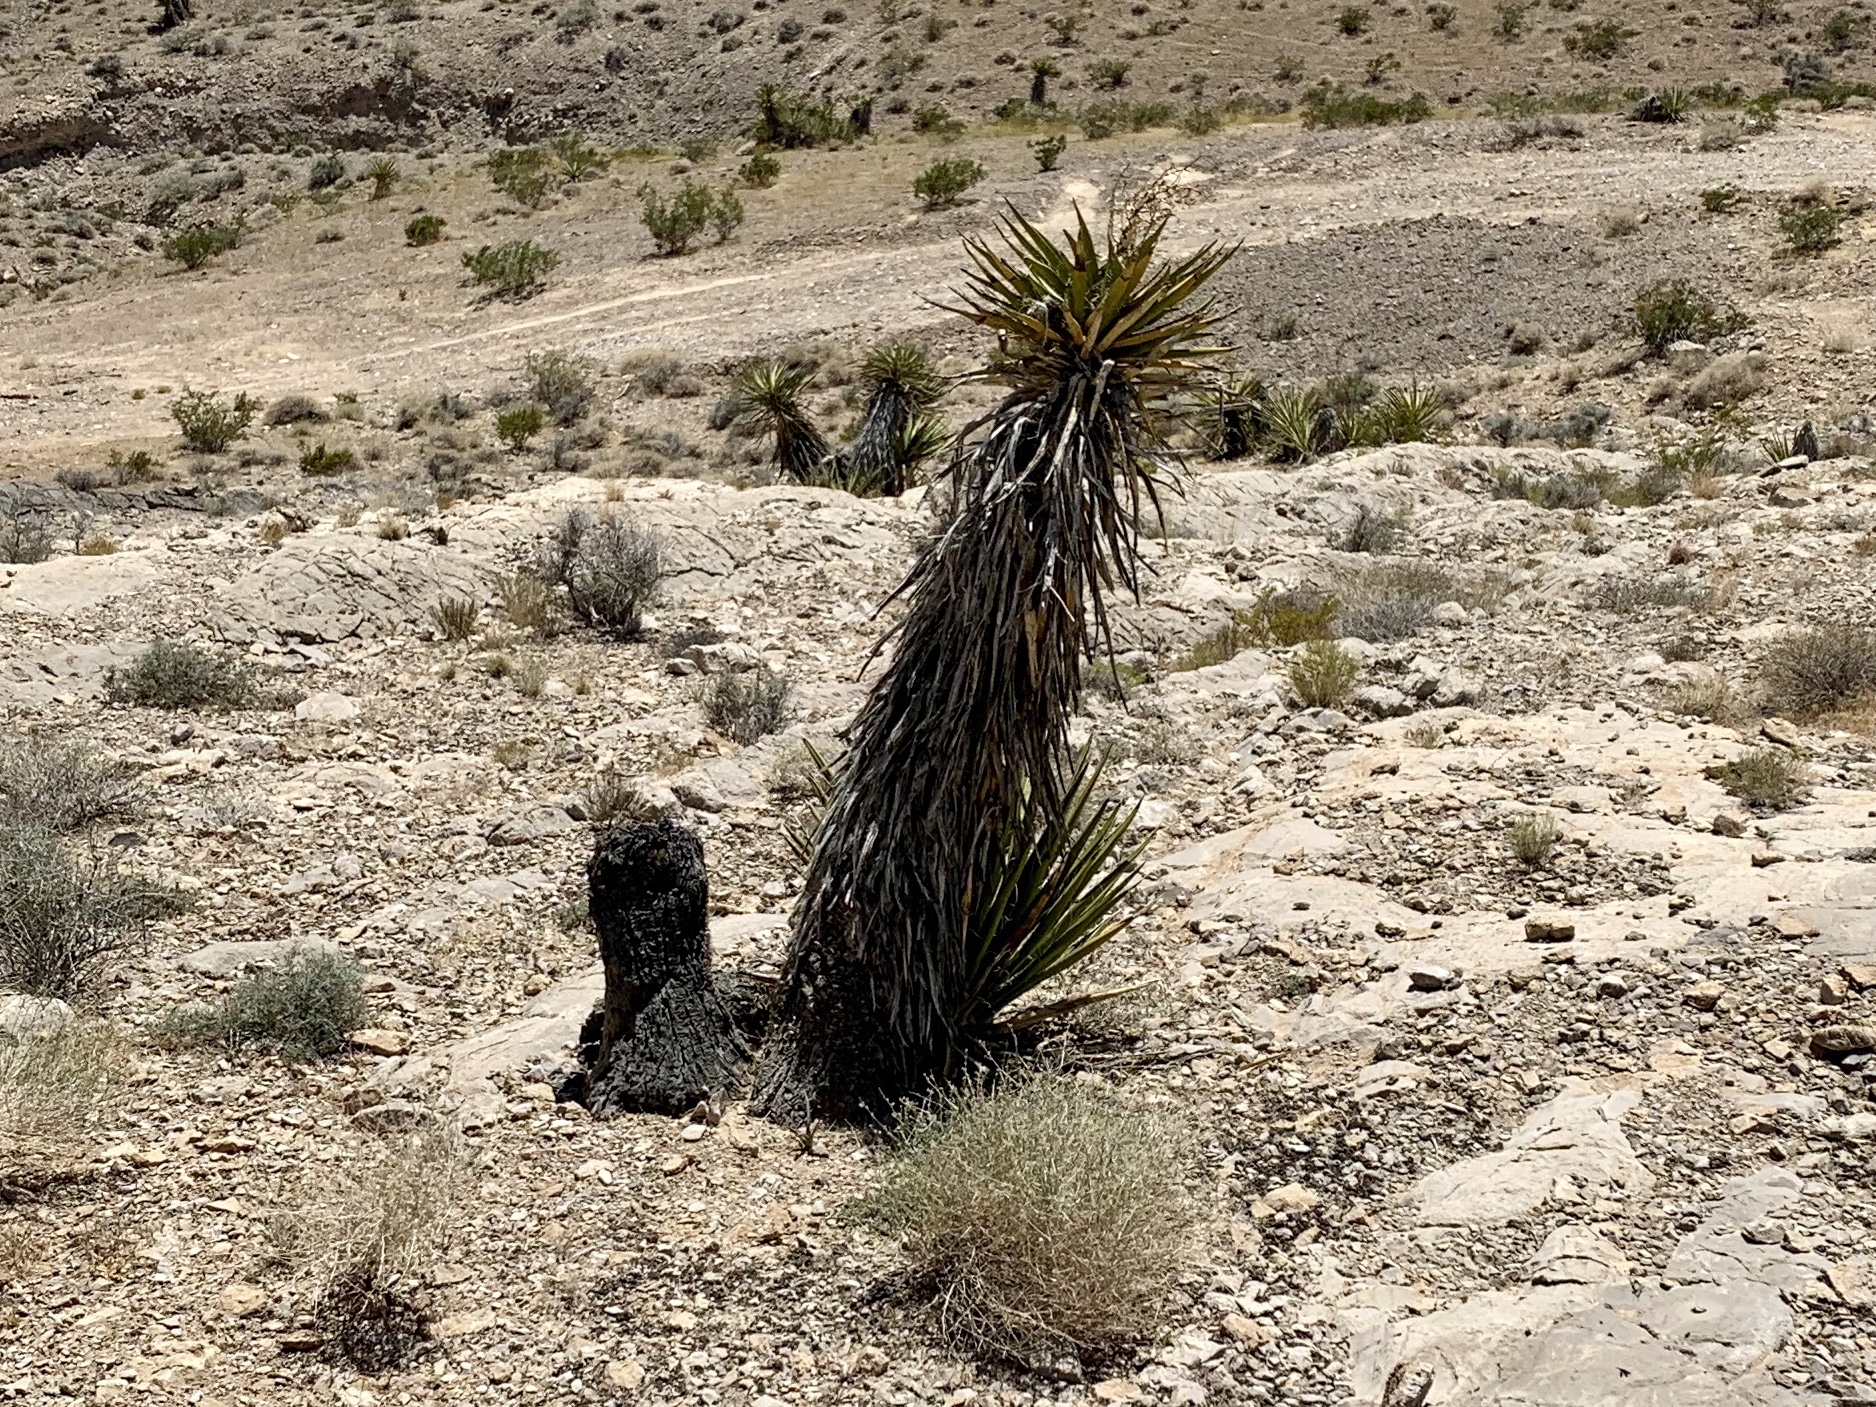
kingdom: Plantae
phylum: Tracheophyta
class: Liliopsida
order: Asparagales
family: Asparagaceae
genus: Yucca
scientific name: Yucca schidigera
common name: Mojave yucca
